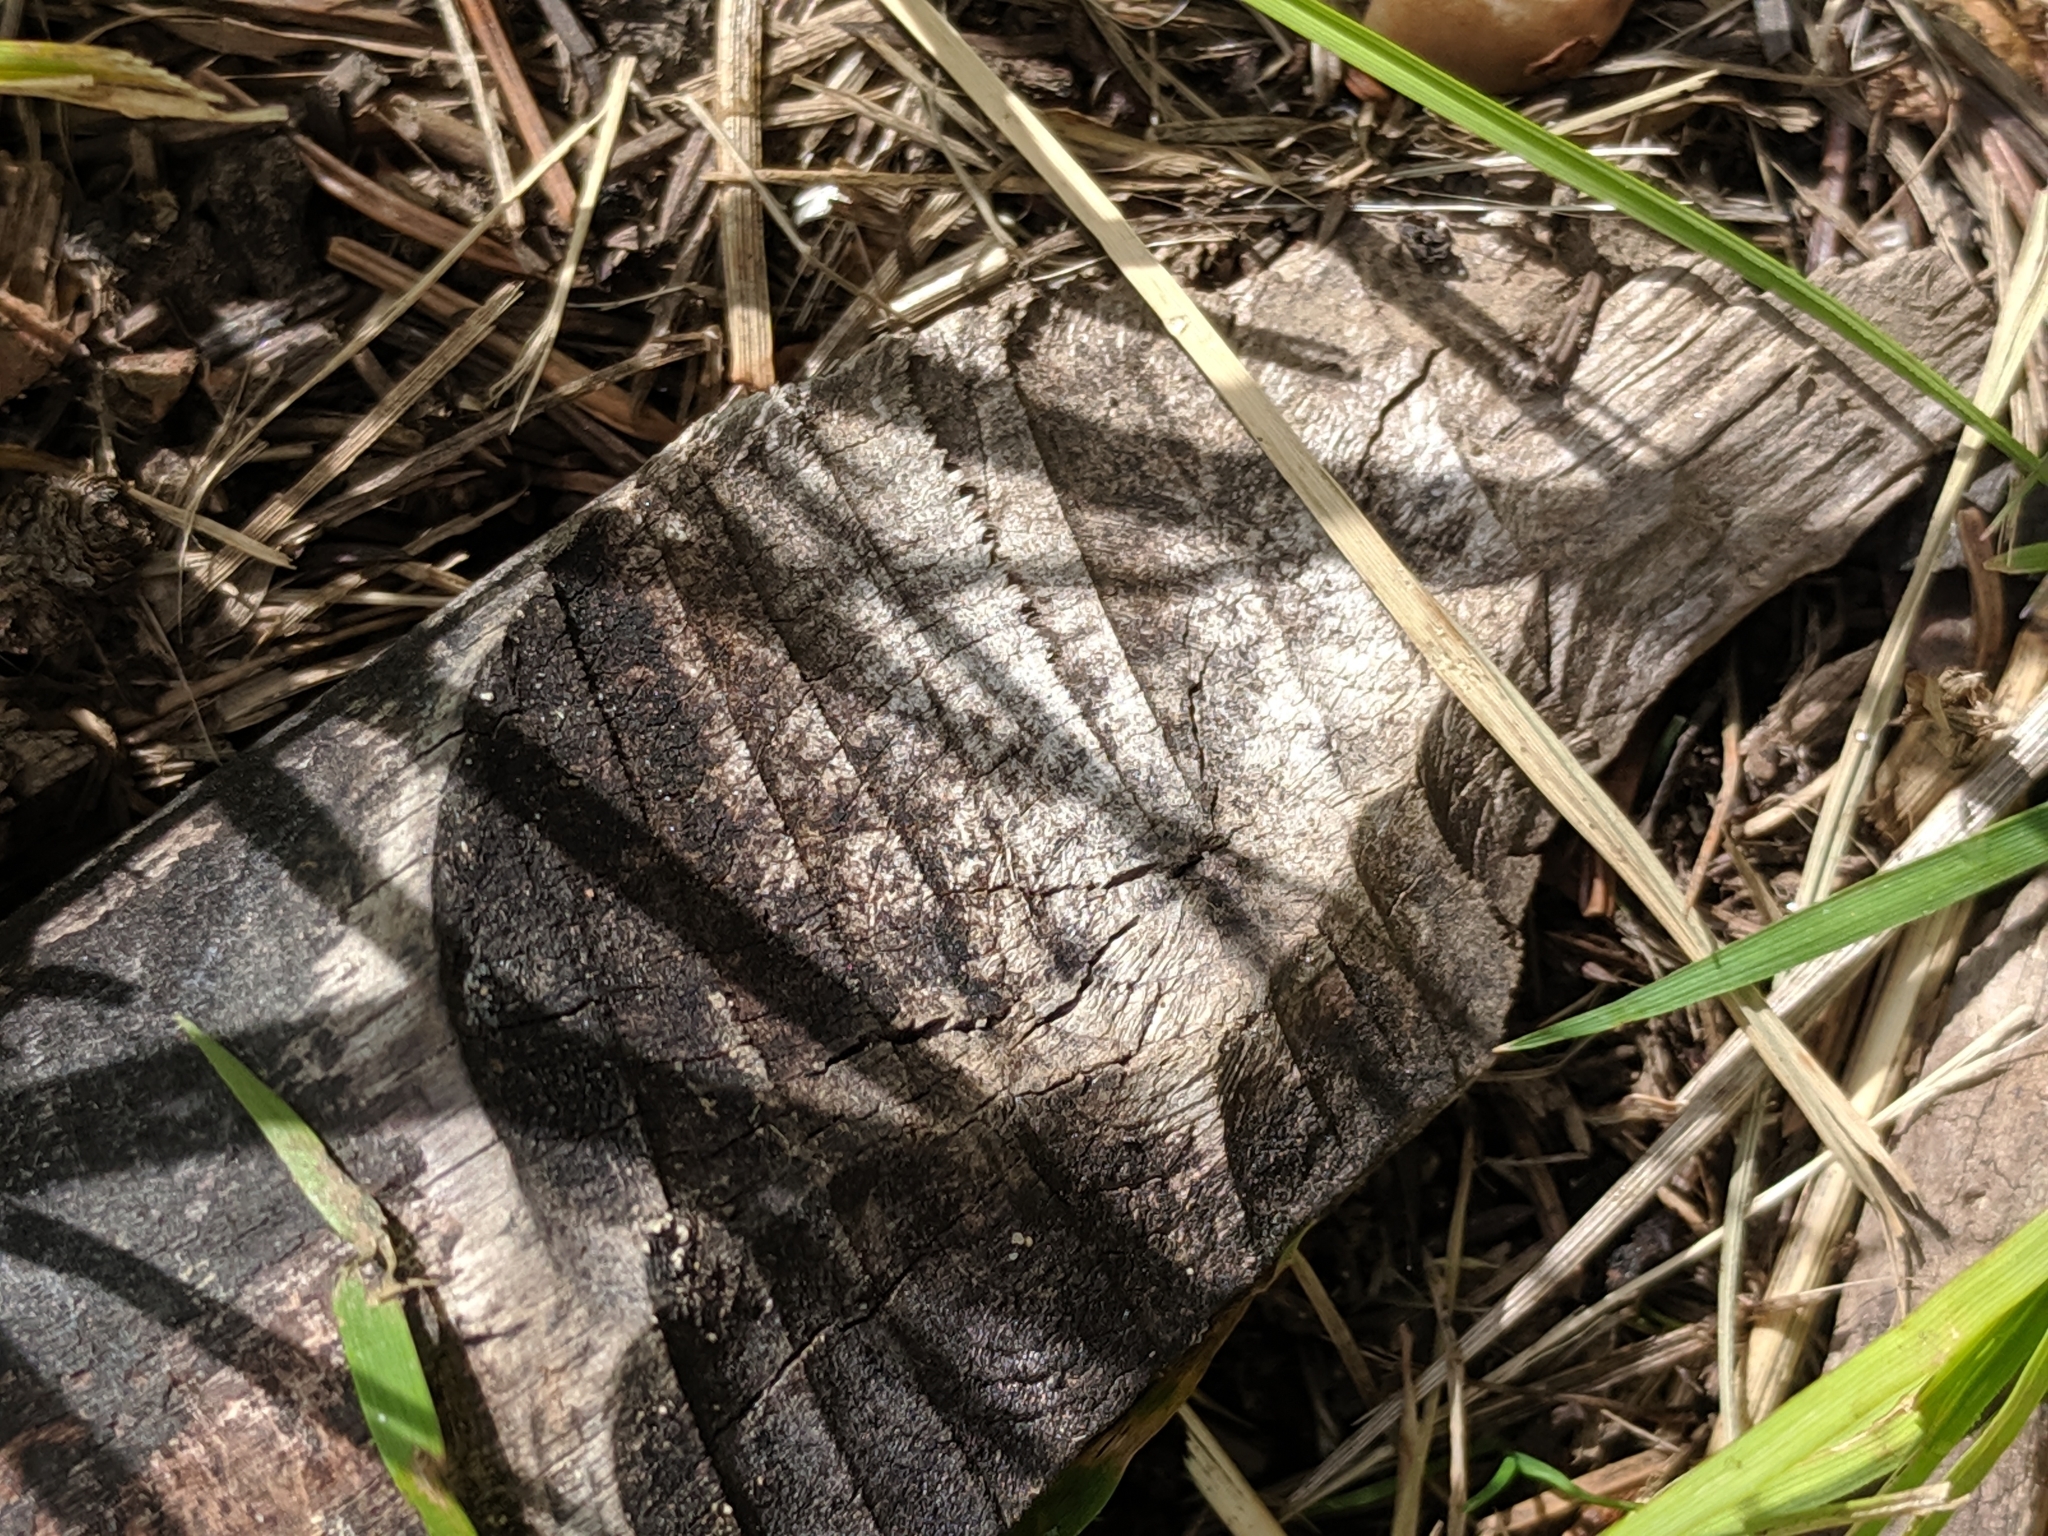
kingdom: Animalia
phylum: Chordata
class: Mammalia
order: Rodentia
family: Castoridae
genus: Castor
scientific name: Castor canadensis
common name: American beaver
